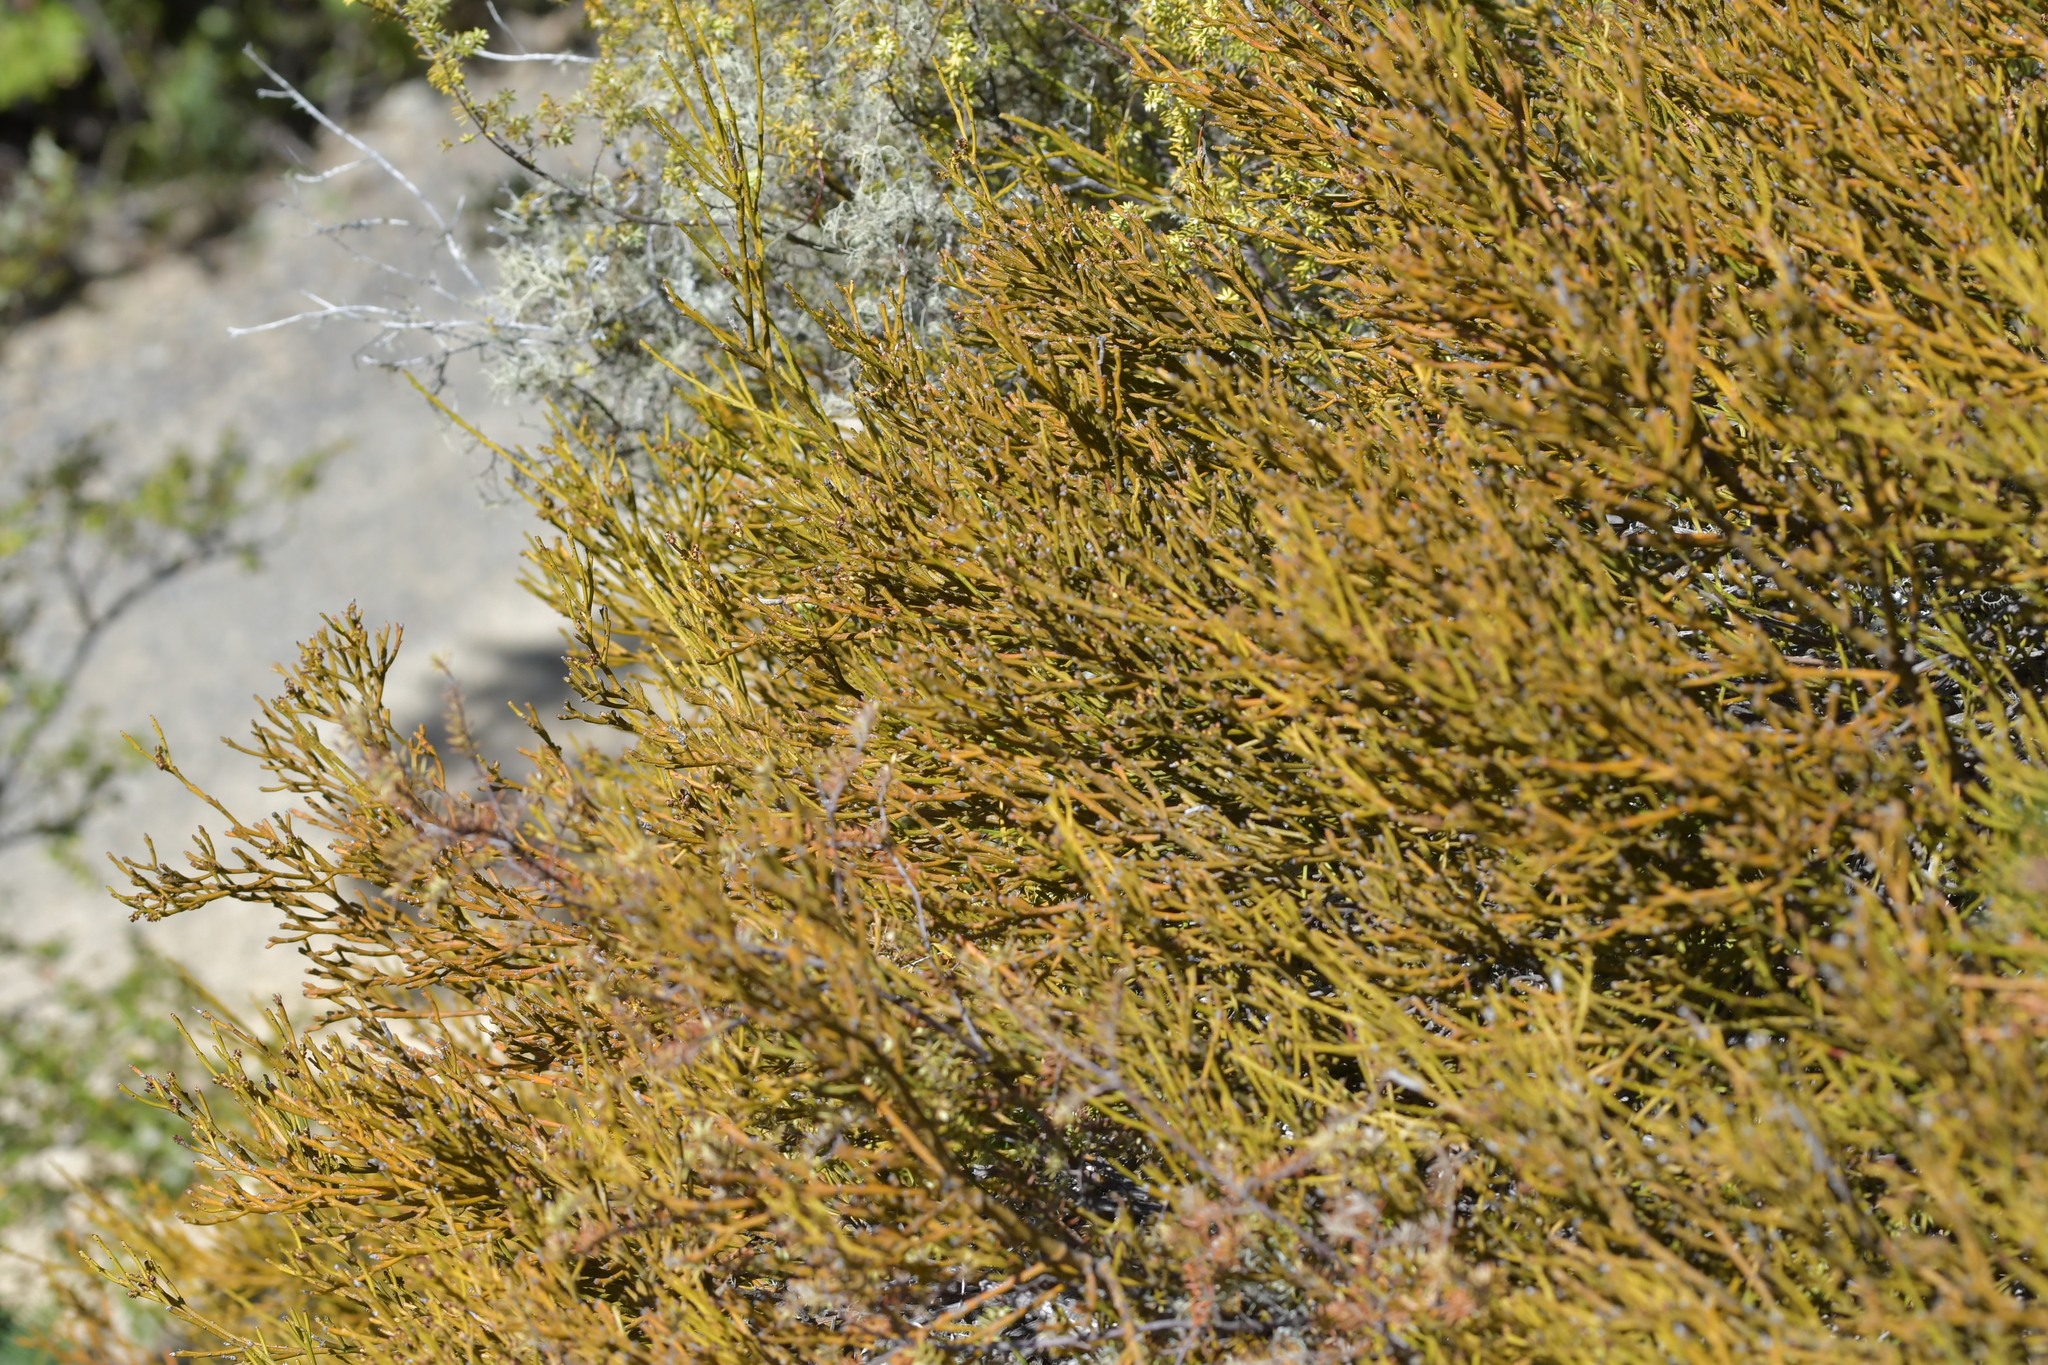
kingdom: Plantae
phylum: Tracheophyta
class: Magnoliopsida
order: Santalales
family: Santalaceae
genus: Exocarpos
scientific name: Exocarpos bidwillii
